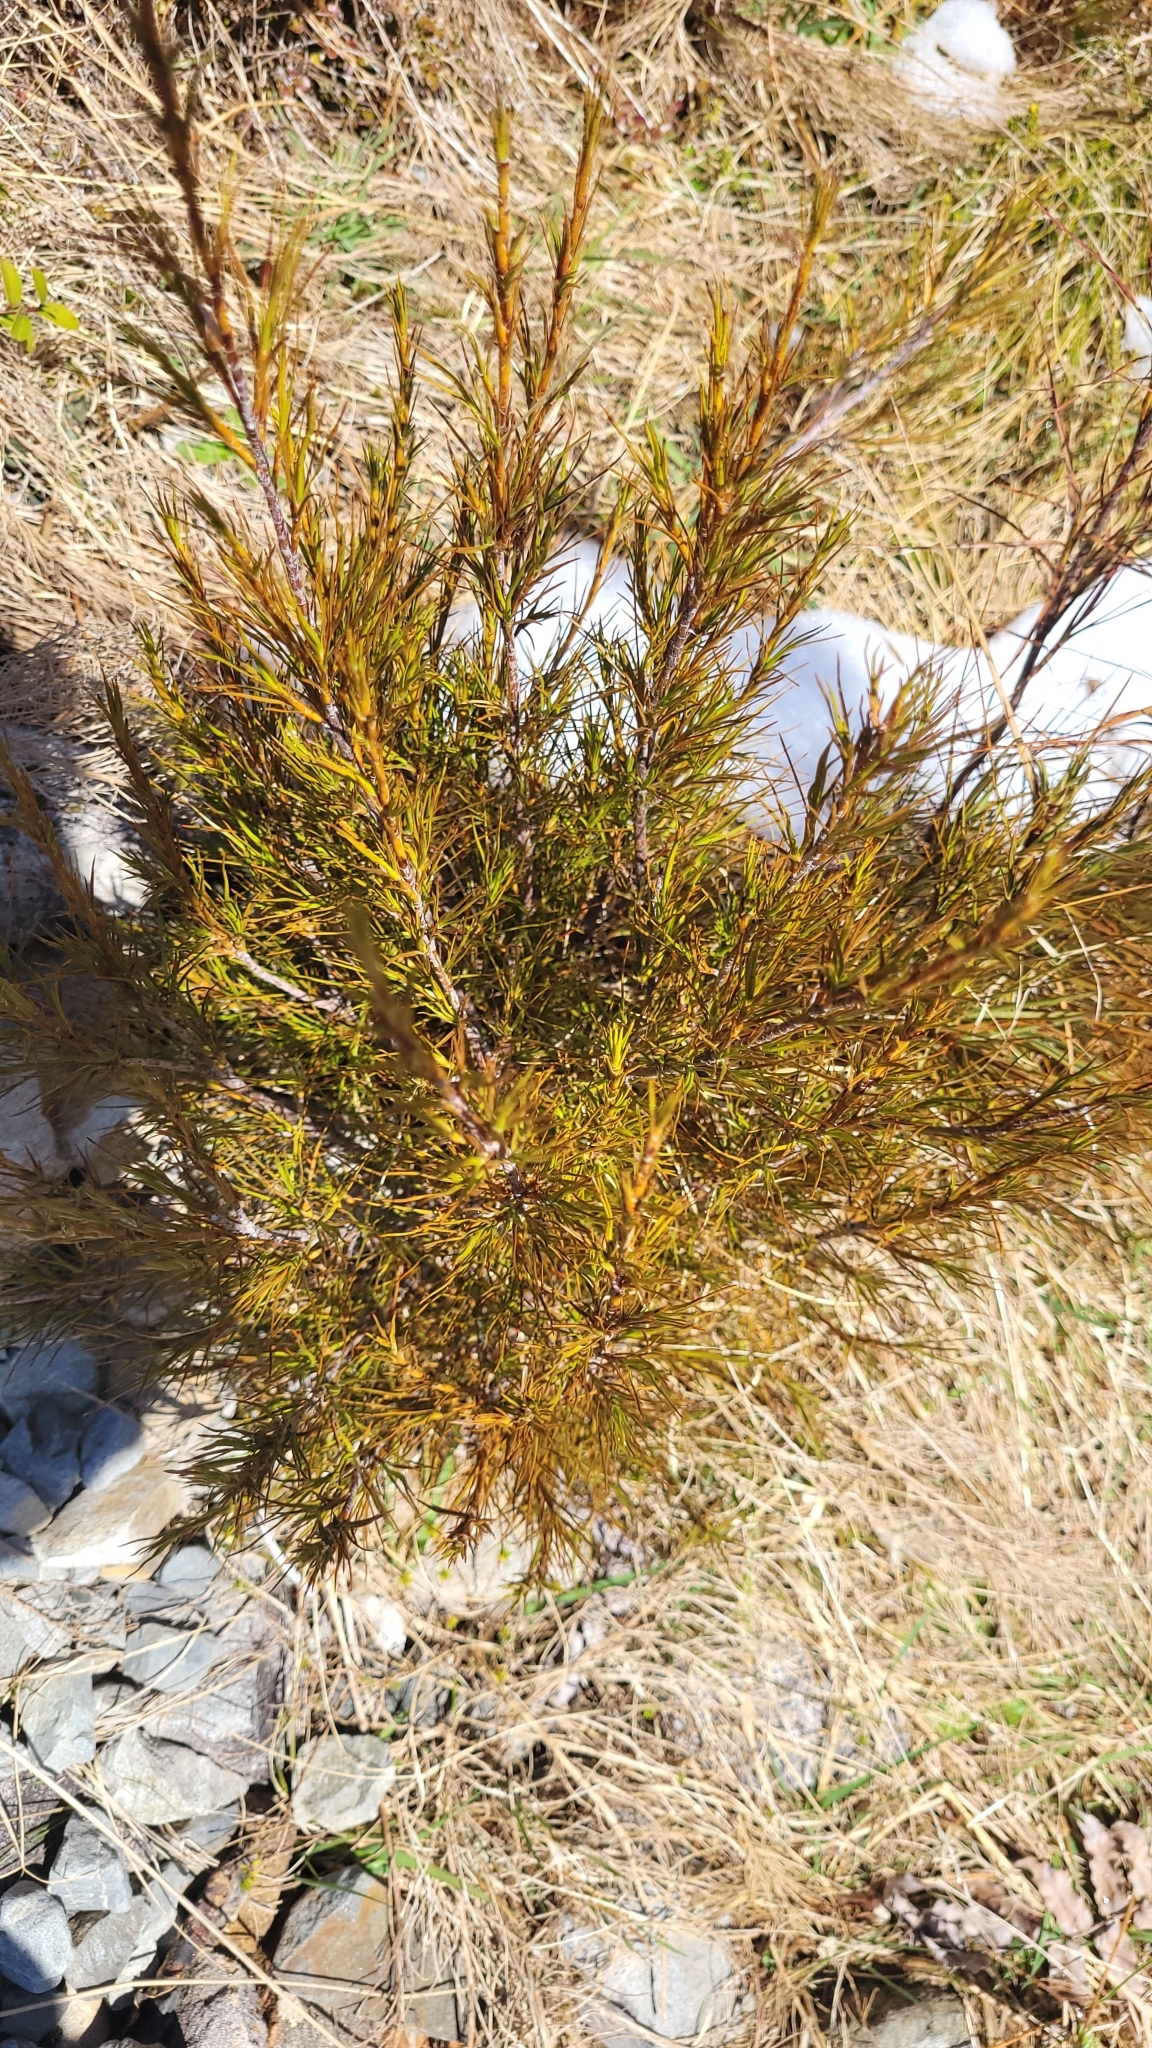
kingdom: Plantae
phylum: Tracheophyta
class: Magnoliopsida
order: Ericales
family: Ericaceae
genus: Dracophyllum
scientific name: Dracophyllum longifolium
